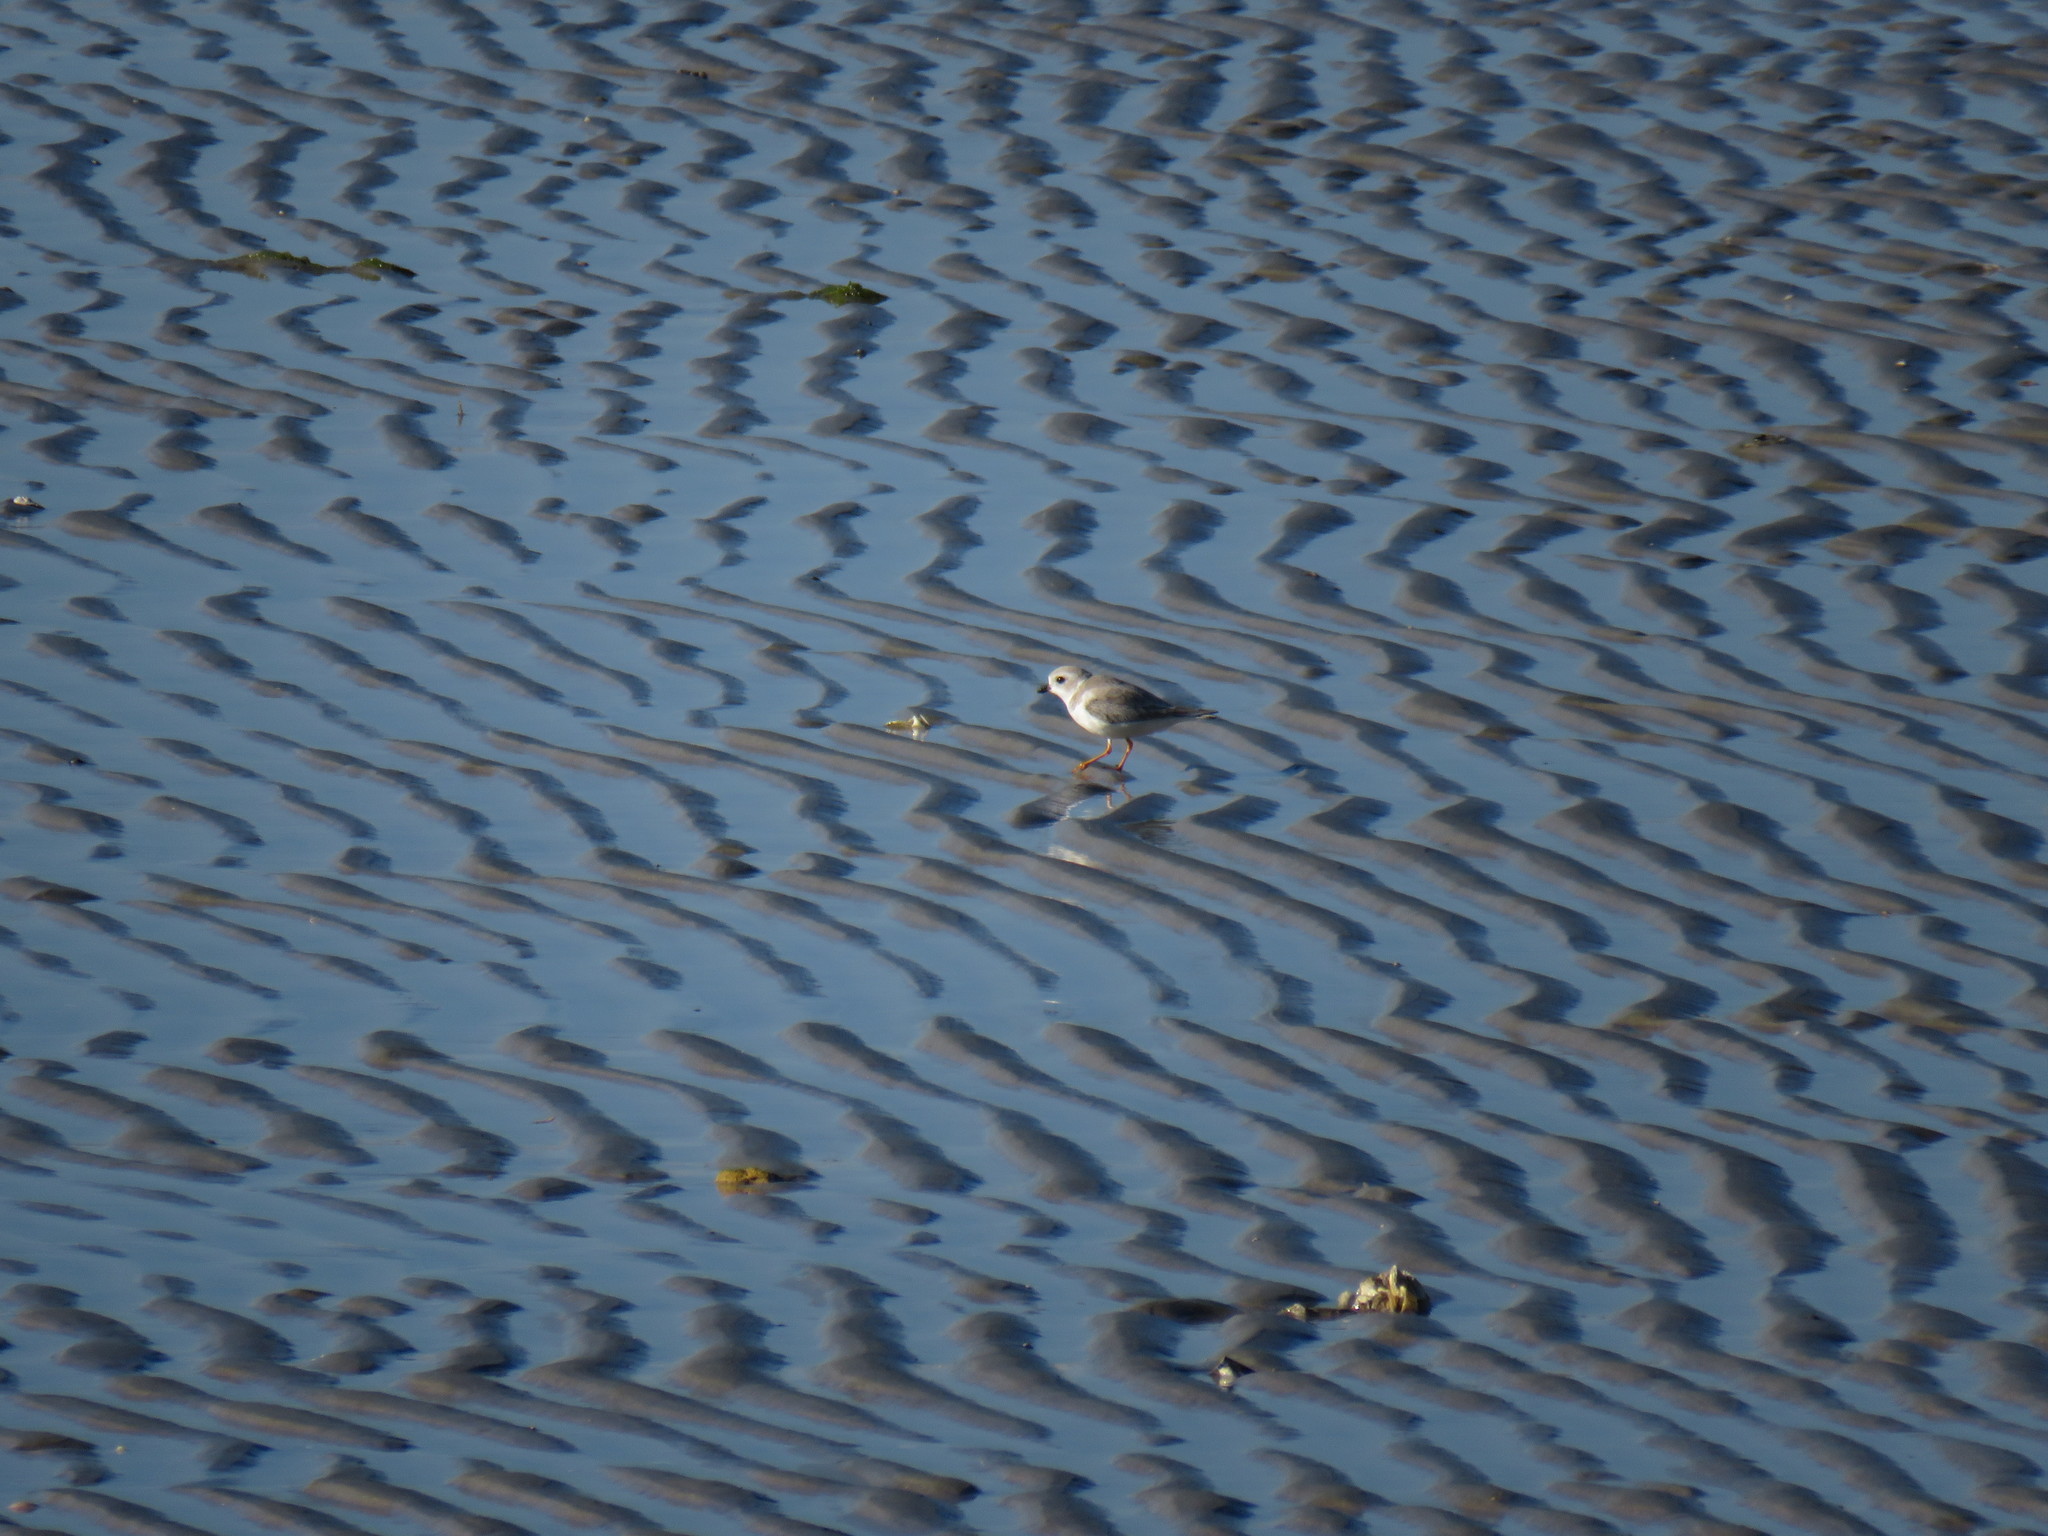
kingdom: Animalia
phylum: Chordata
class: Aves
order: Charadriiformes
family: Charadriidae
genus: Charadrius
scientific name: Charadrius melodus
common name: Piping plover
